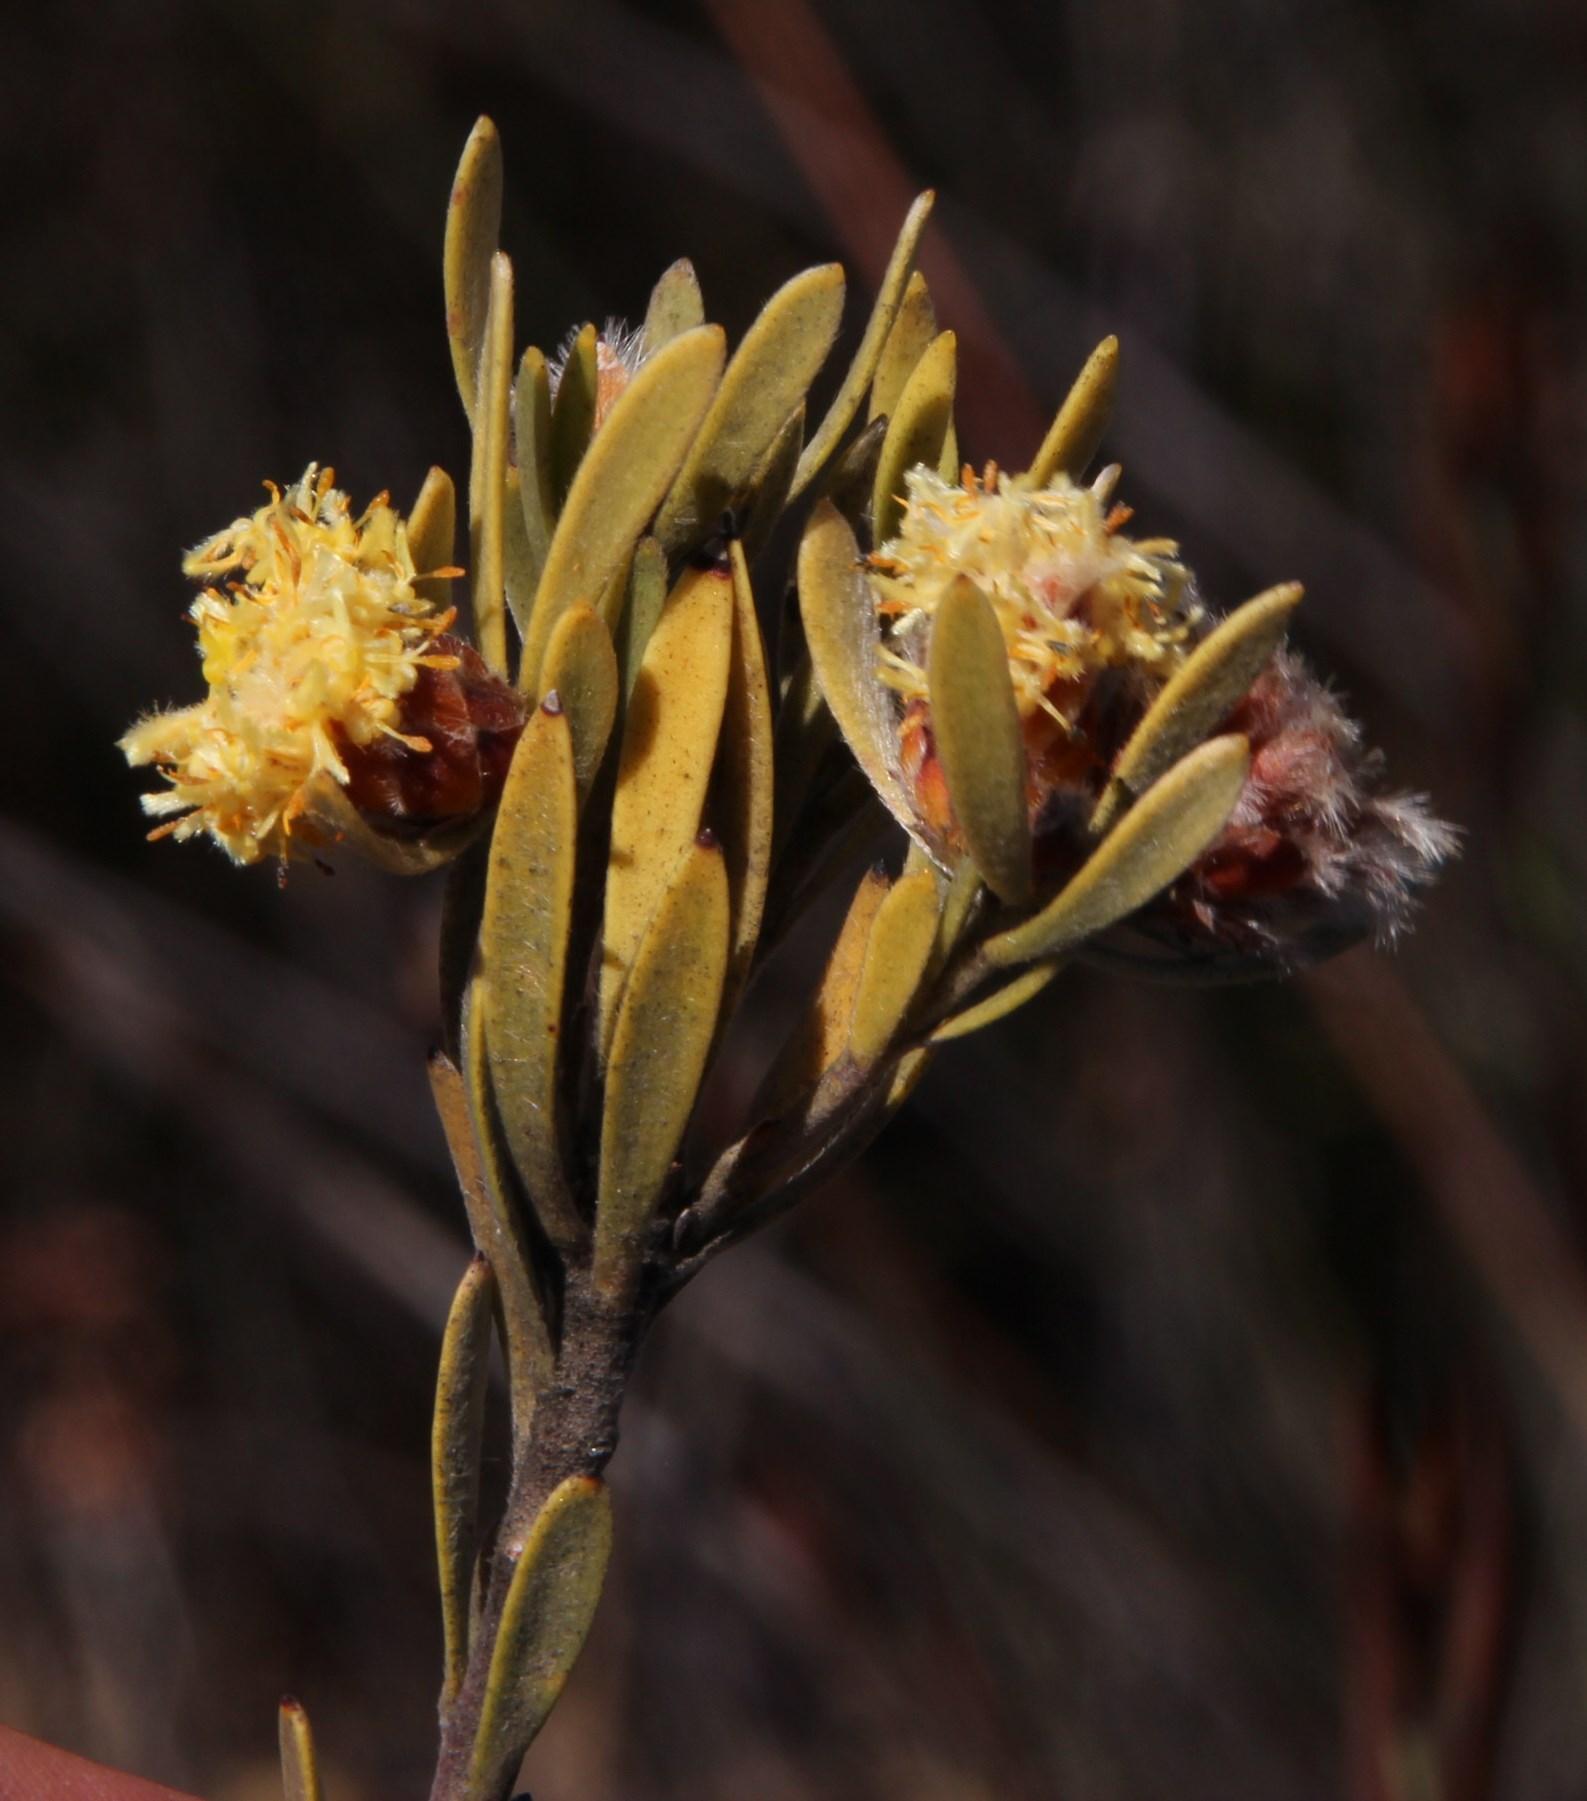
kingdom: Plantae
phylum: Tracheophyta
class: Magnoliopsida
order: Proteales
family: Proteaceae
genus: Leucadendron
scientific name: Leucadendron nitidum
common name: Bokkeveld conebush
